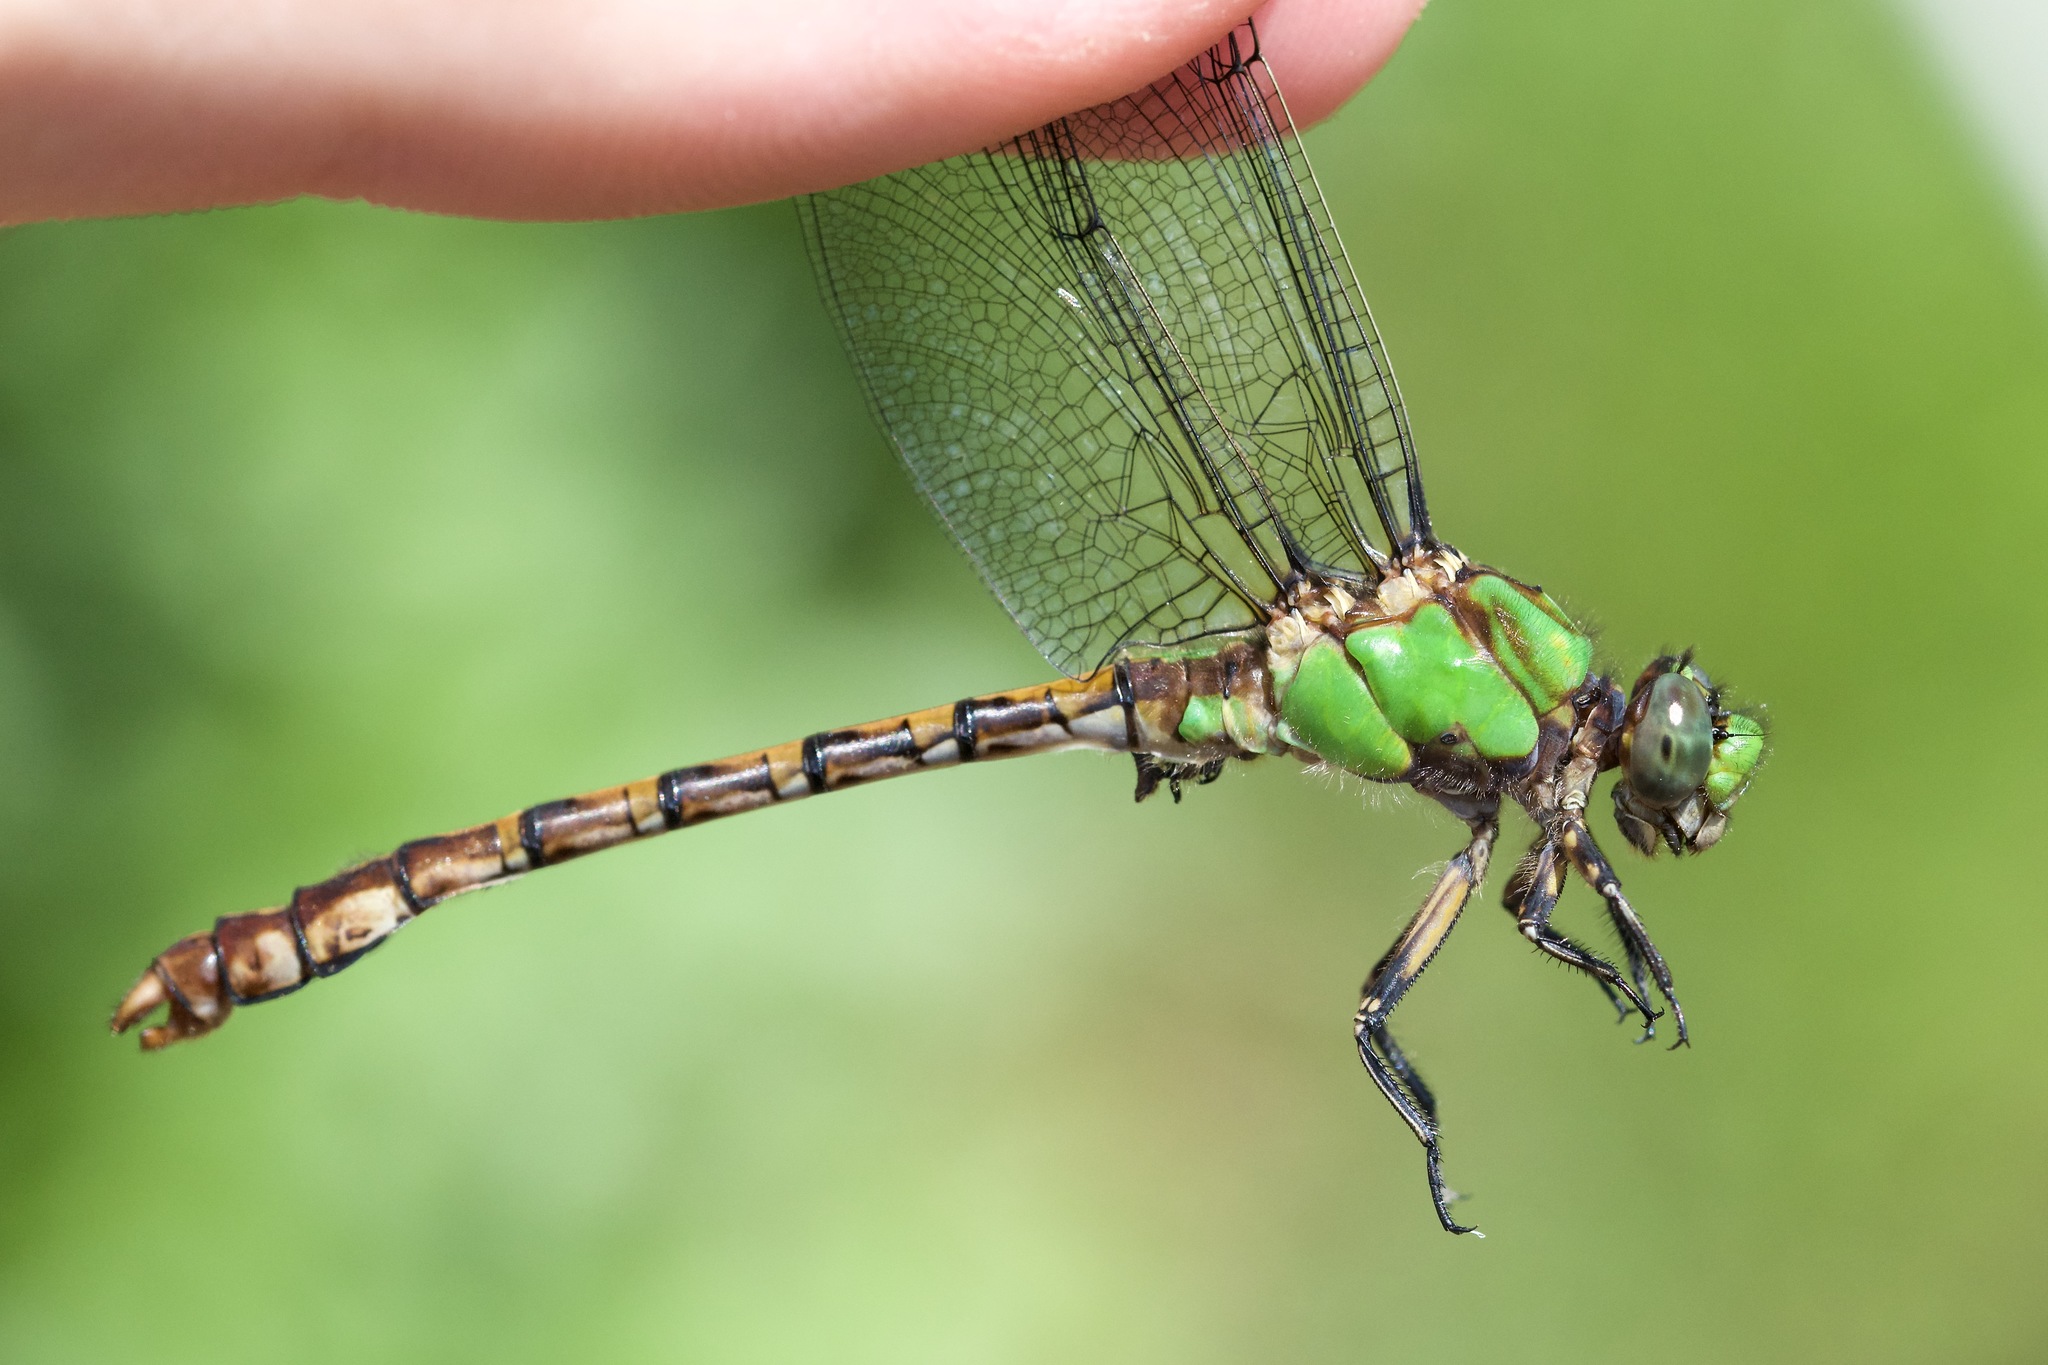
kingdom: Animalia
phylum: Arthropoda
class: Insecta
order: Odonata
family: Gomphidae
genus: Ophiogomphus
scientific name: Ophiogomphus rupinsulensis
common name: Rusty snaketail
